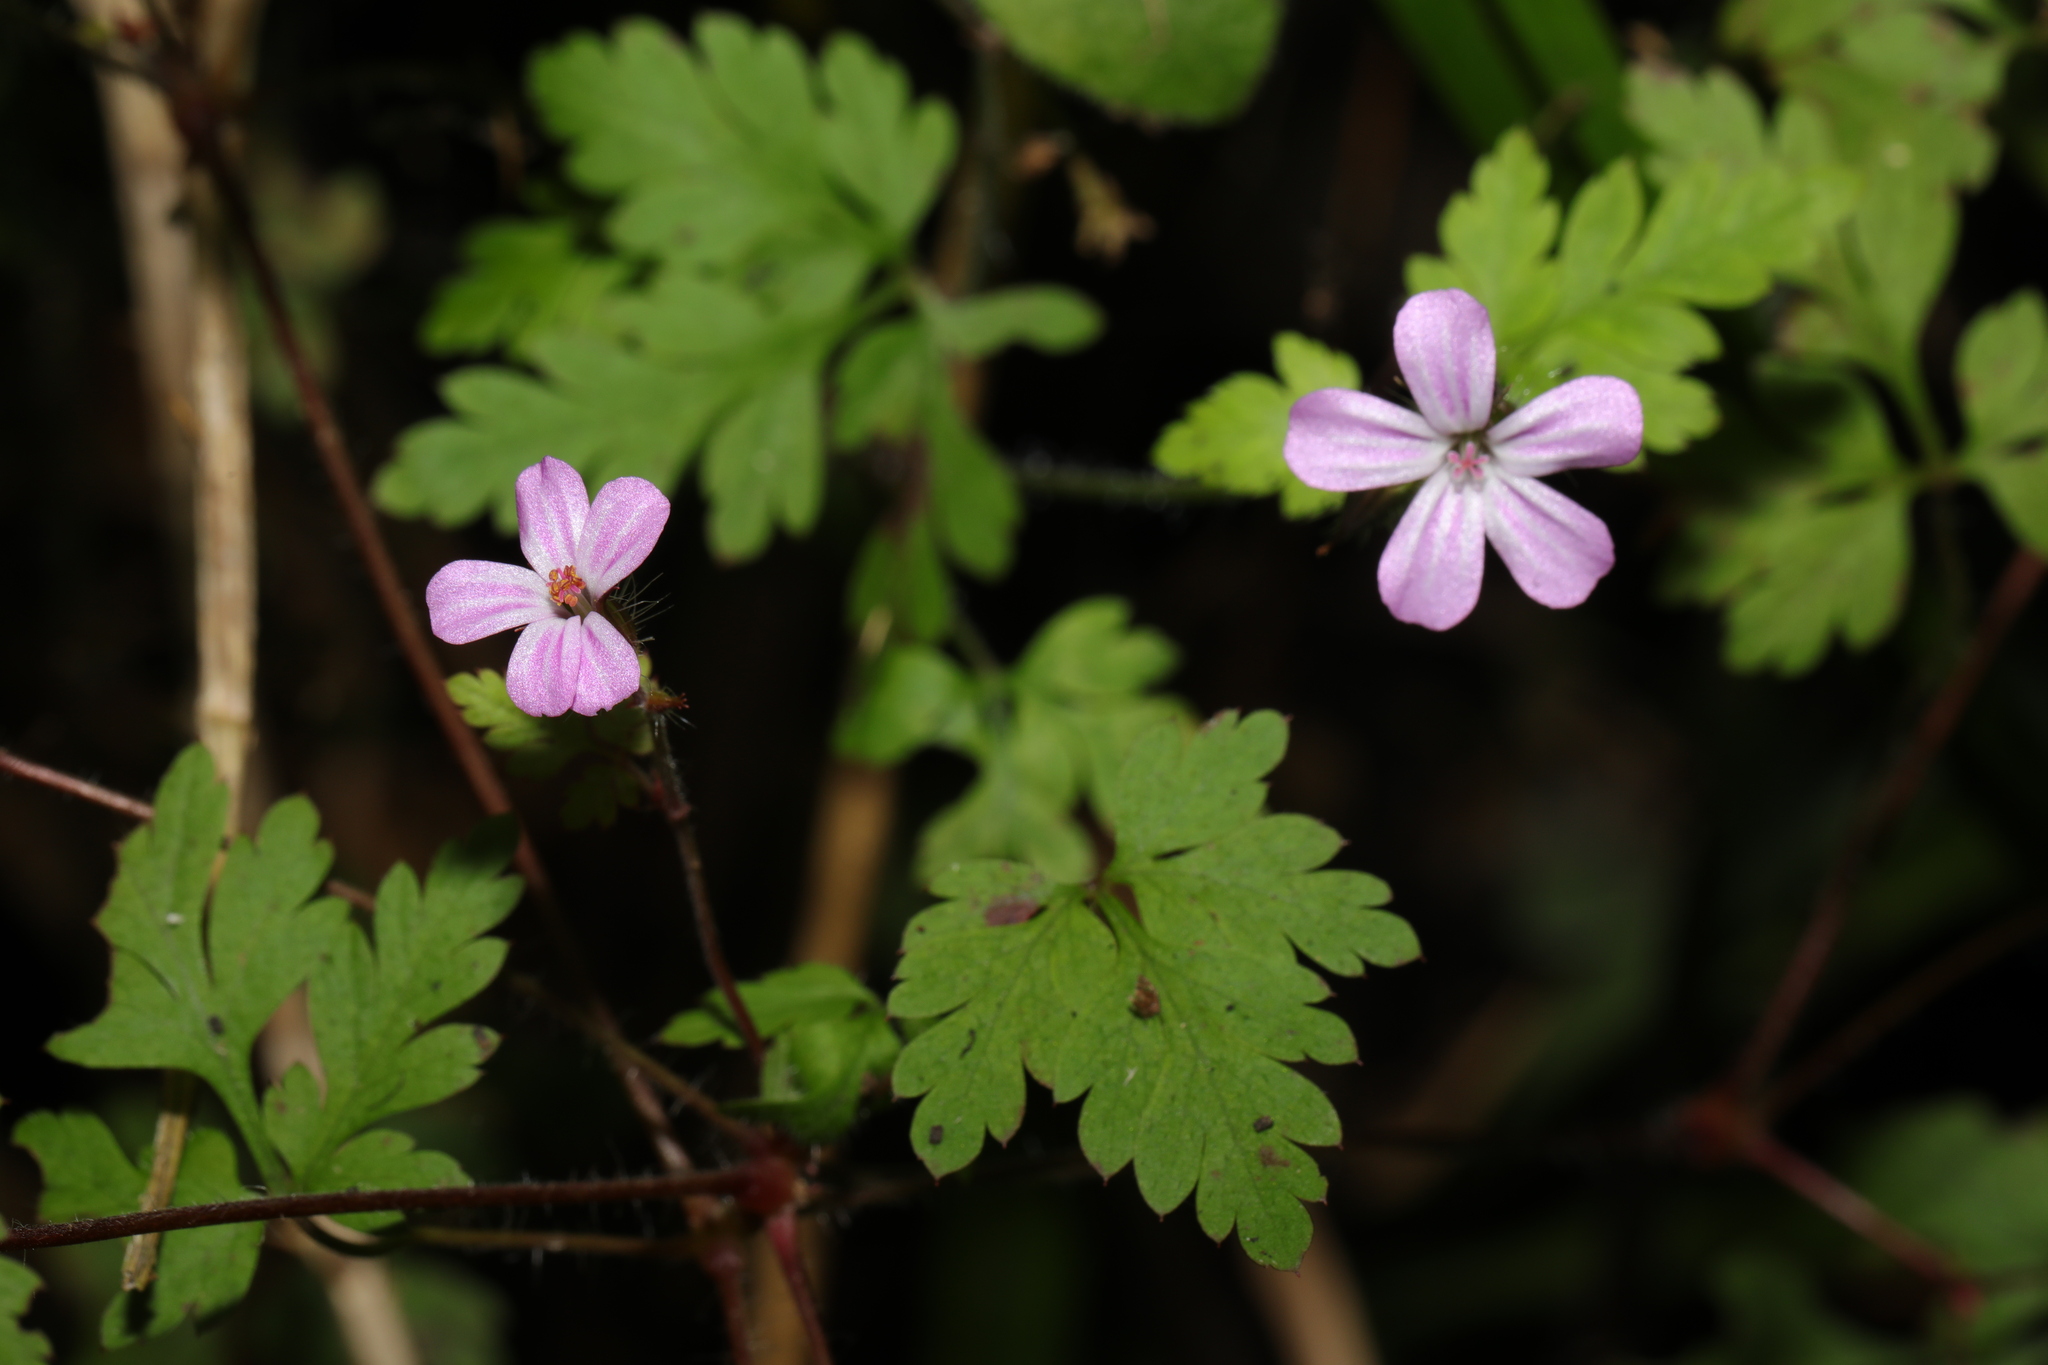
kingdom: Plantae
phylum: Tracheophyta
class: Magnoliopsida
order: Geraniales
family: Geraniaceae
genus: Geranium
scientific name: Geranium robertianum
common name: Herb-robert
